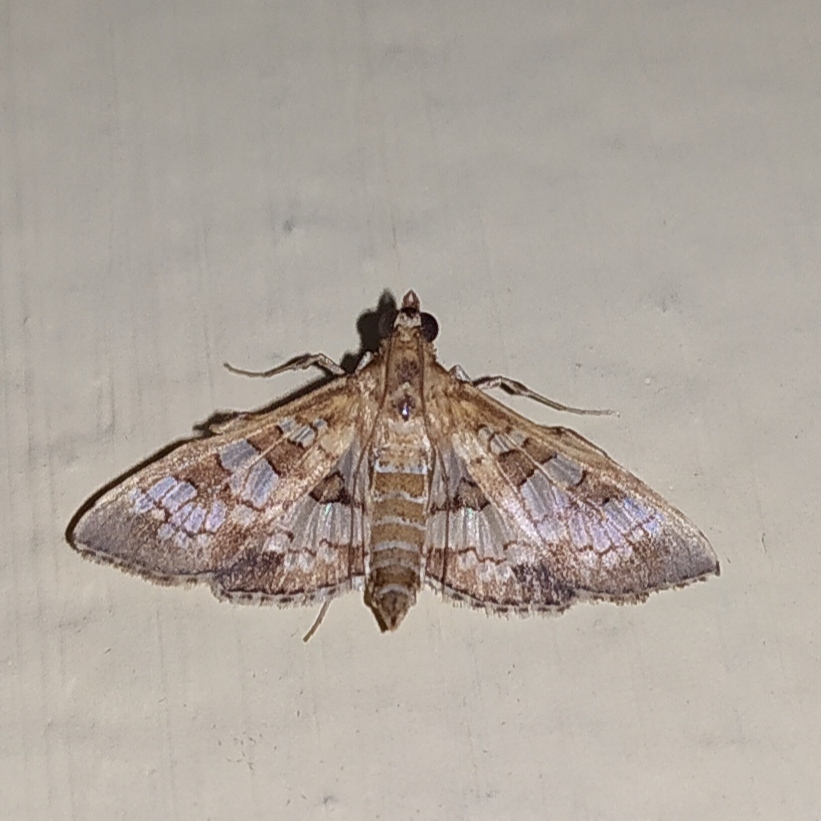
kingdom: Animalia
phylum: Arthropoda
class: Insecta
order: Lepidoptera
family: Crambidae
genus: Sameodes
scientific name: Sameodes cancellalis
